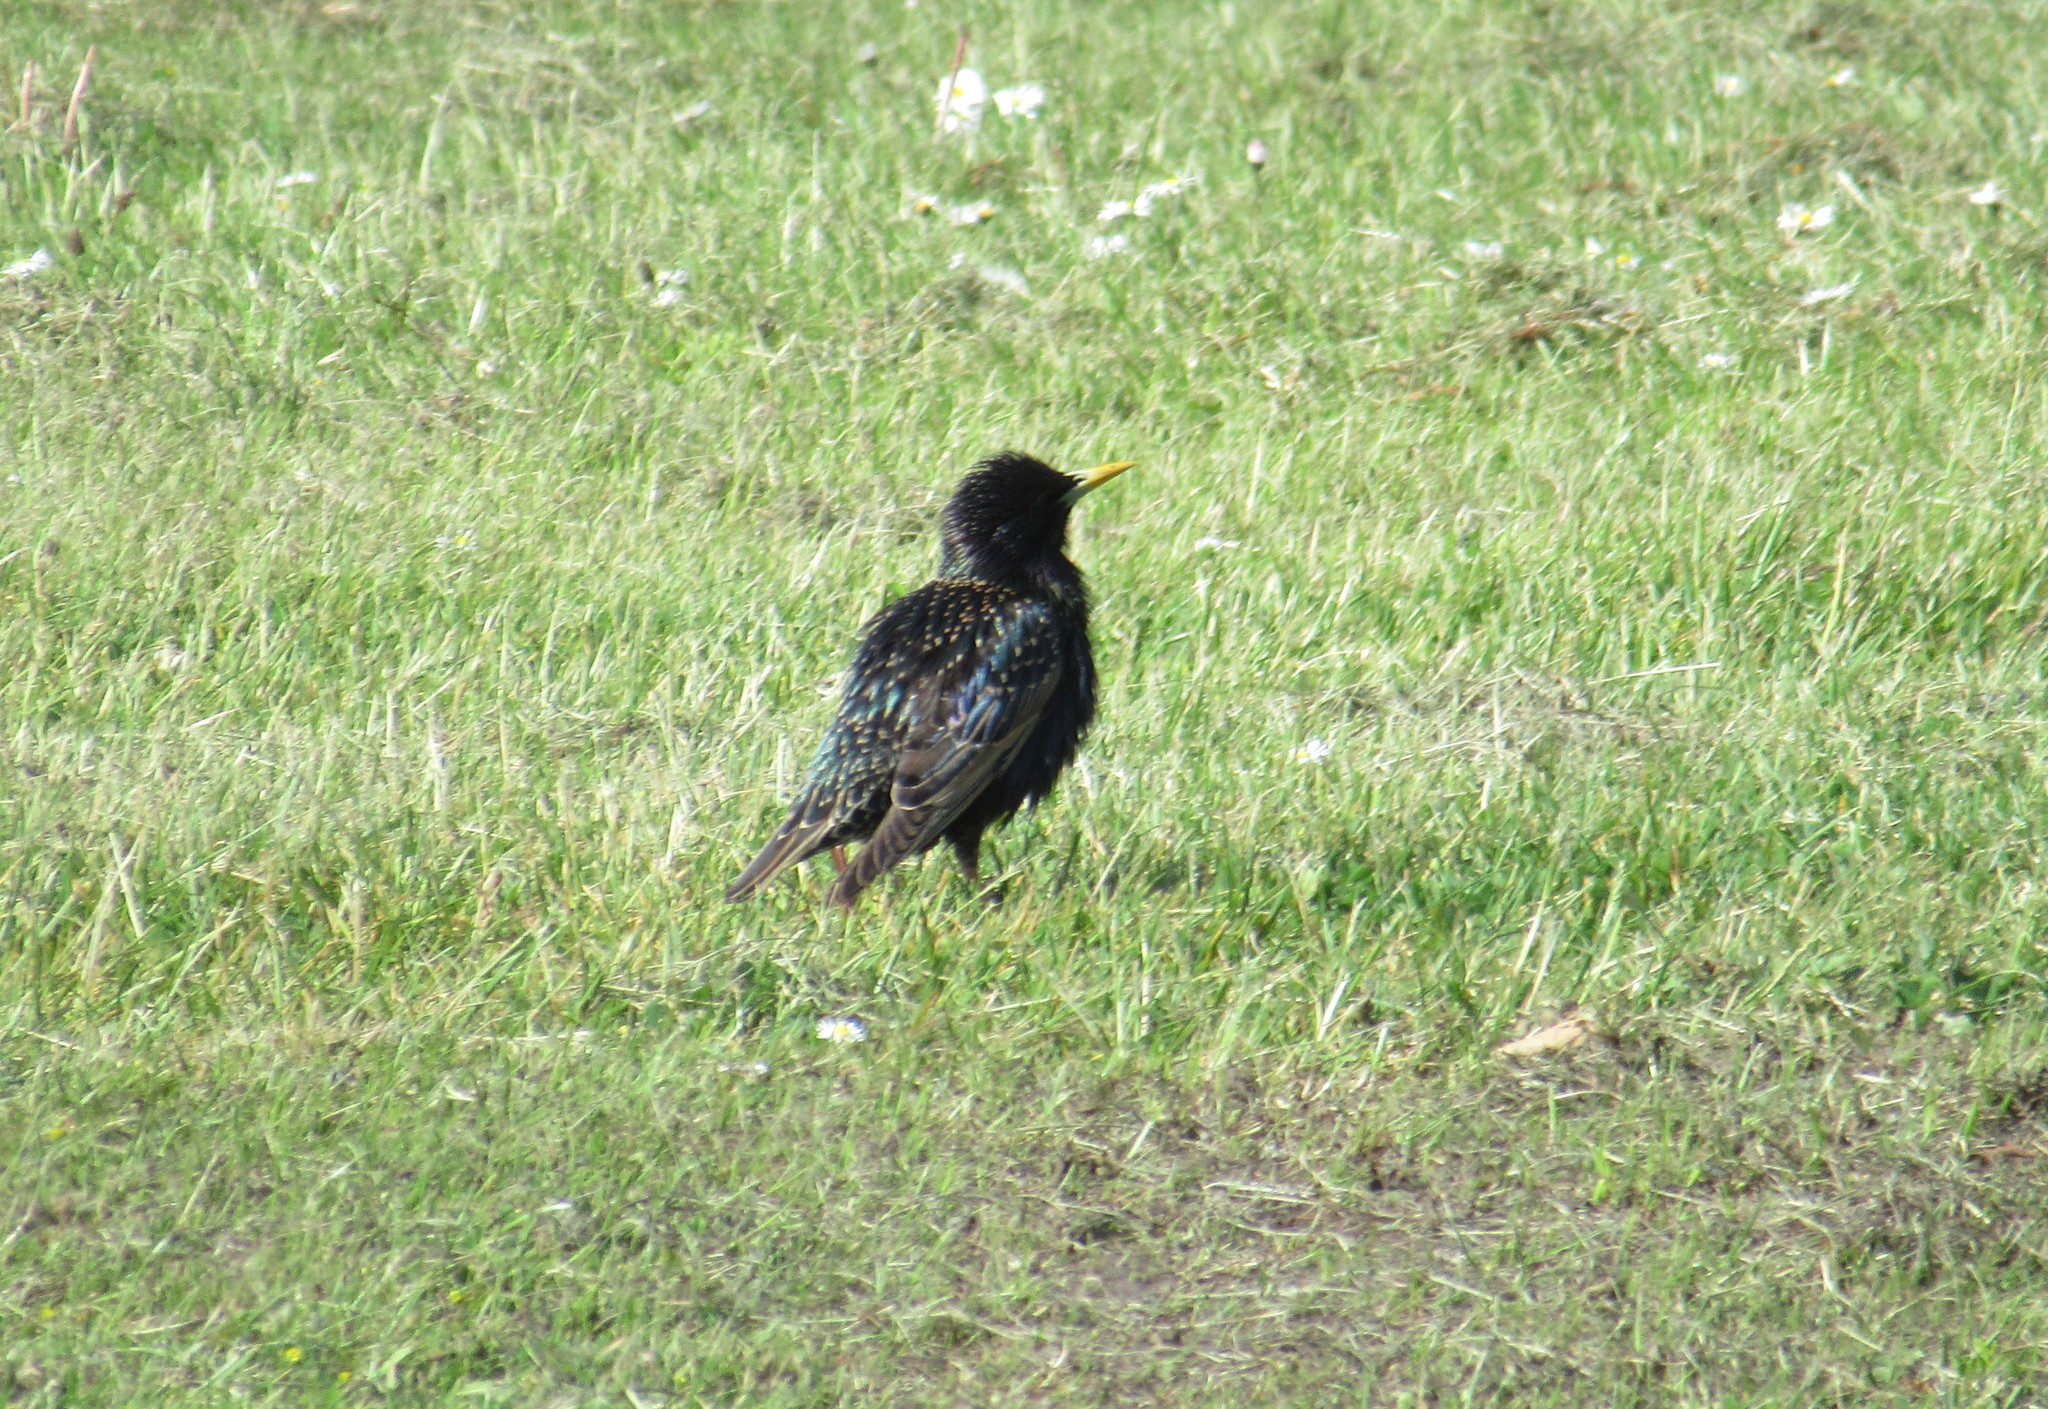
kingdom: Animalia
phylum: Chordata
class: Aves
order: Passeriformes
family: Sturnidae
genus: Sturnus
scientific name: Sturnus vulgaris
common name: Common starling
